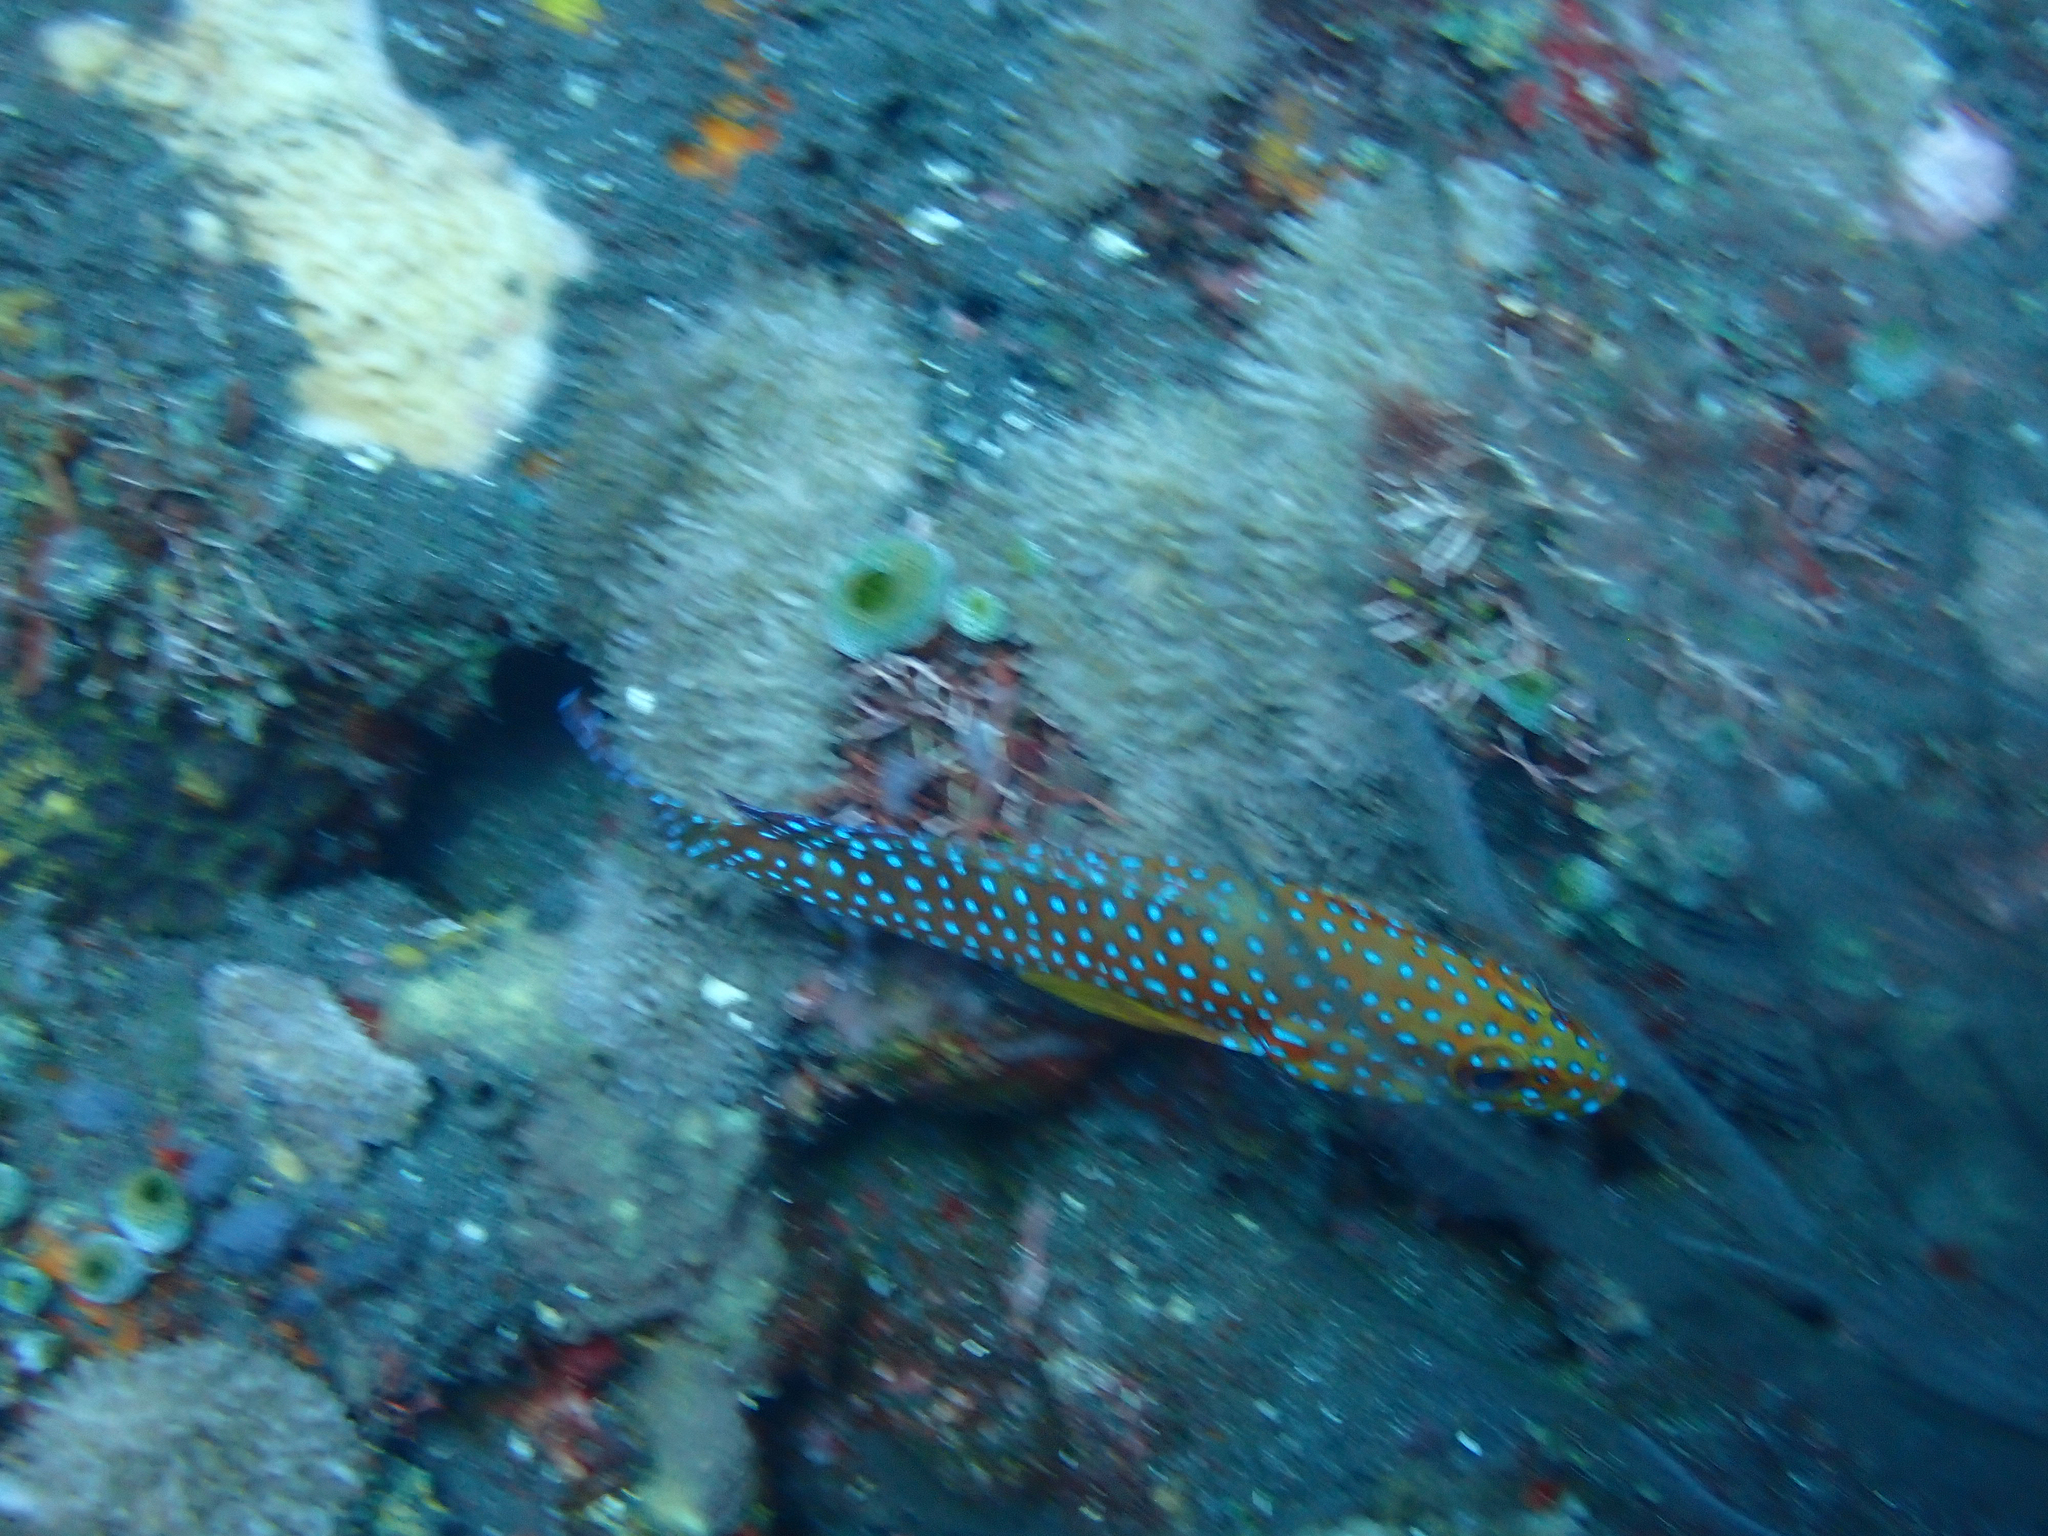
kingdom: Animalia
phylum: Chordata
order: Perciformes
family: Serranidae
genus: Cephalopholis
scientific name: Cephalopholis miniata
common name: Coral hind
